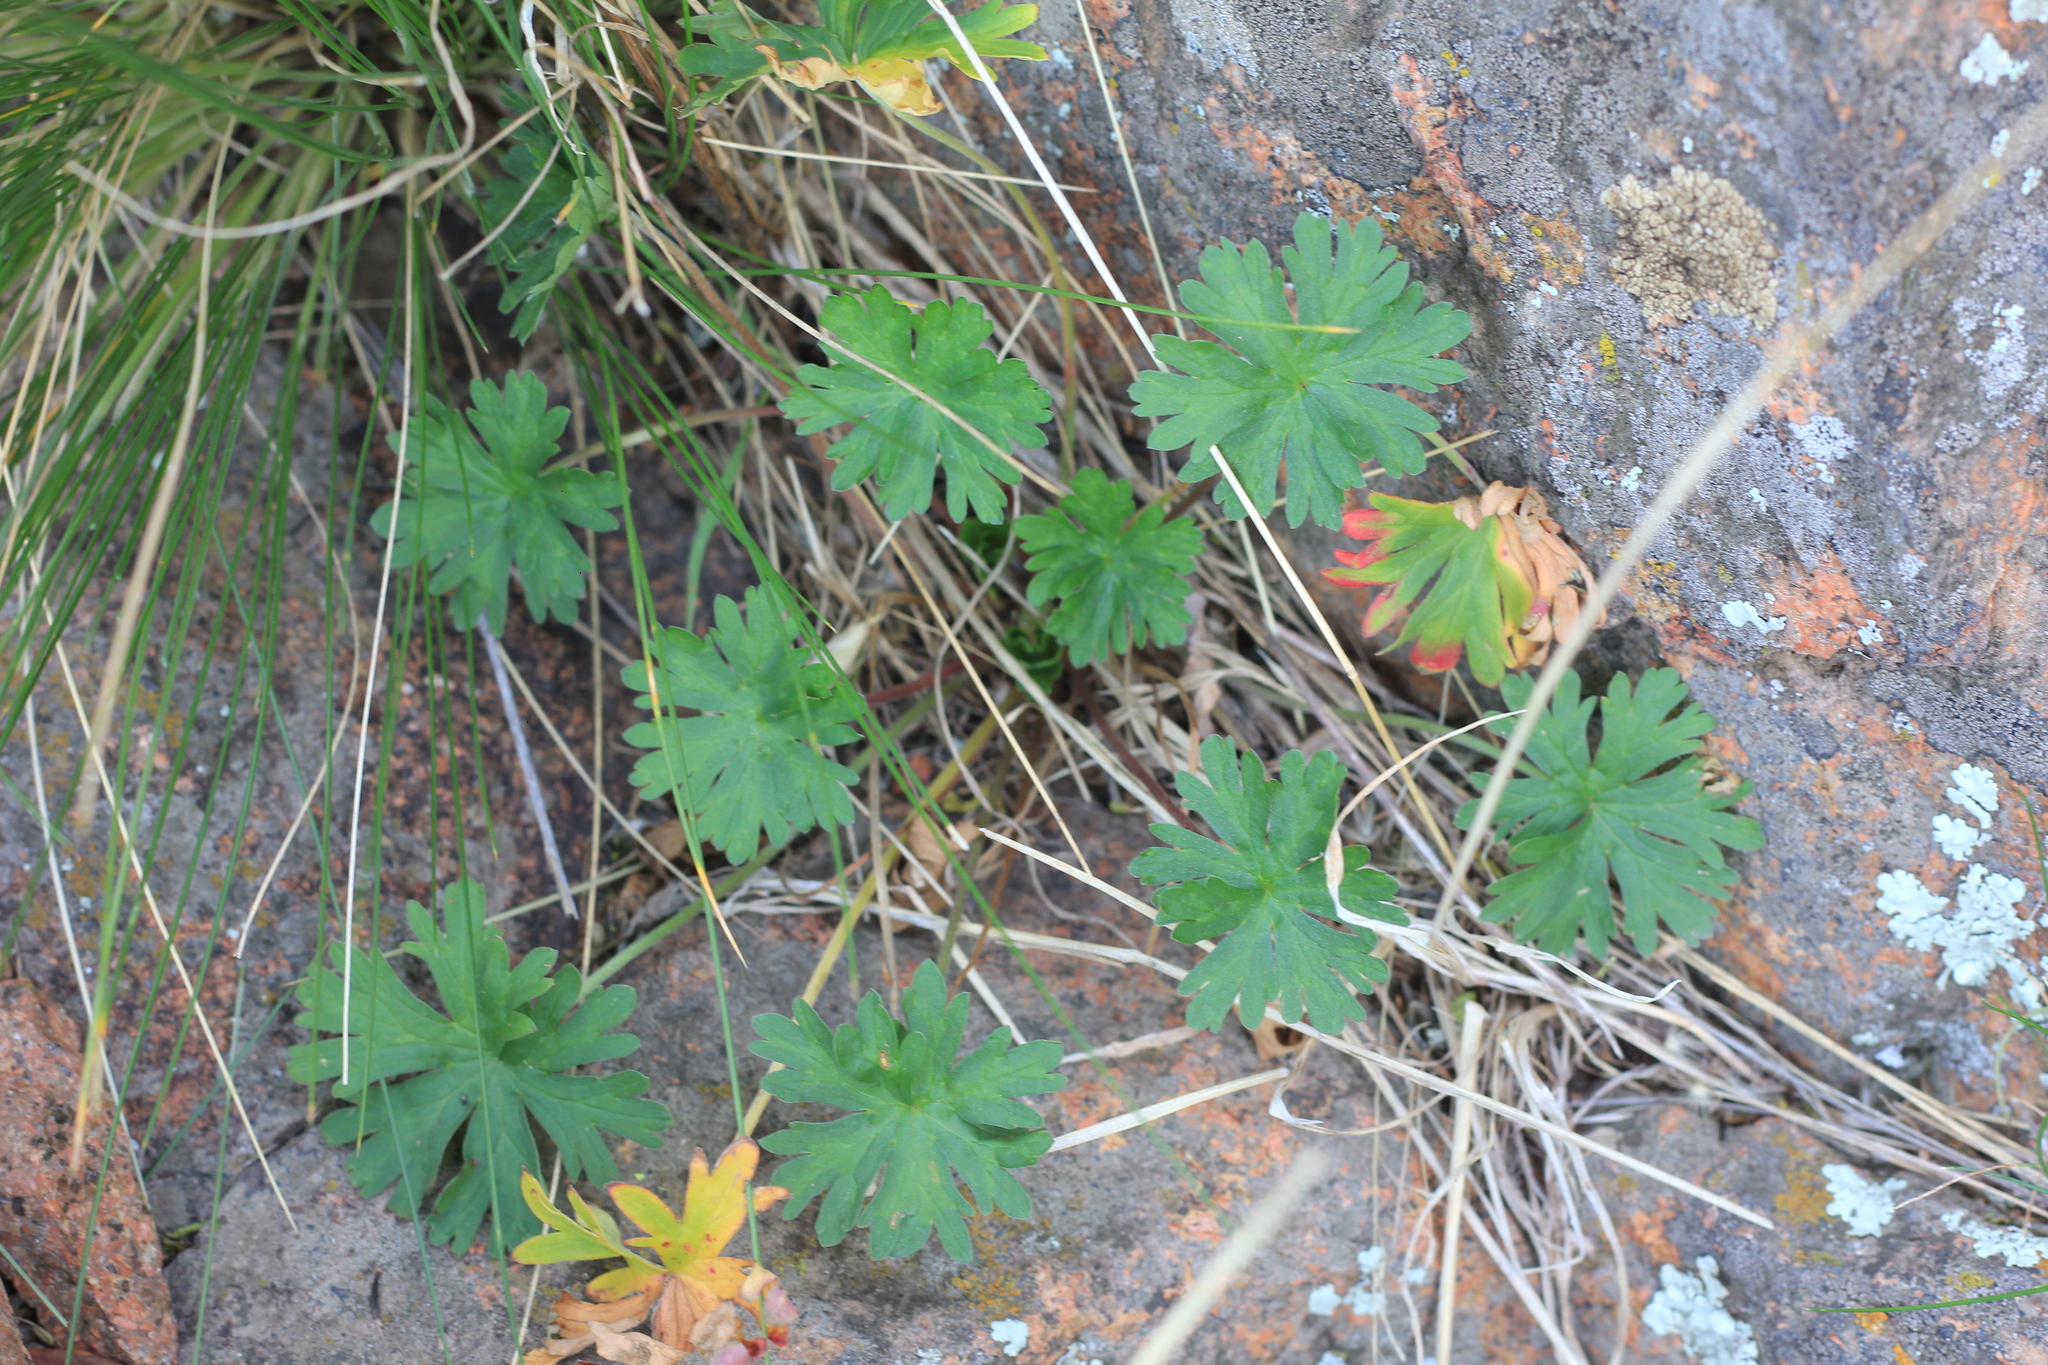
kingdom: Plantae
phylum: Tracheophyta
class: Magnoliopsida
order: Geraniales
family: Geraniaceae
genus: Geranium
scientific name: Geranium core-core
